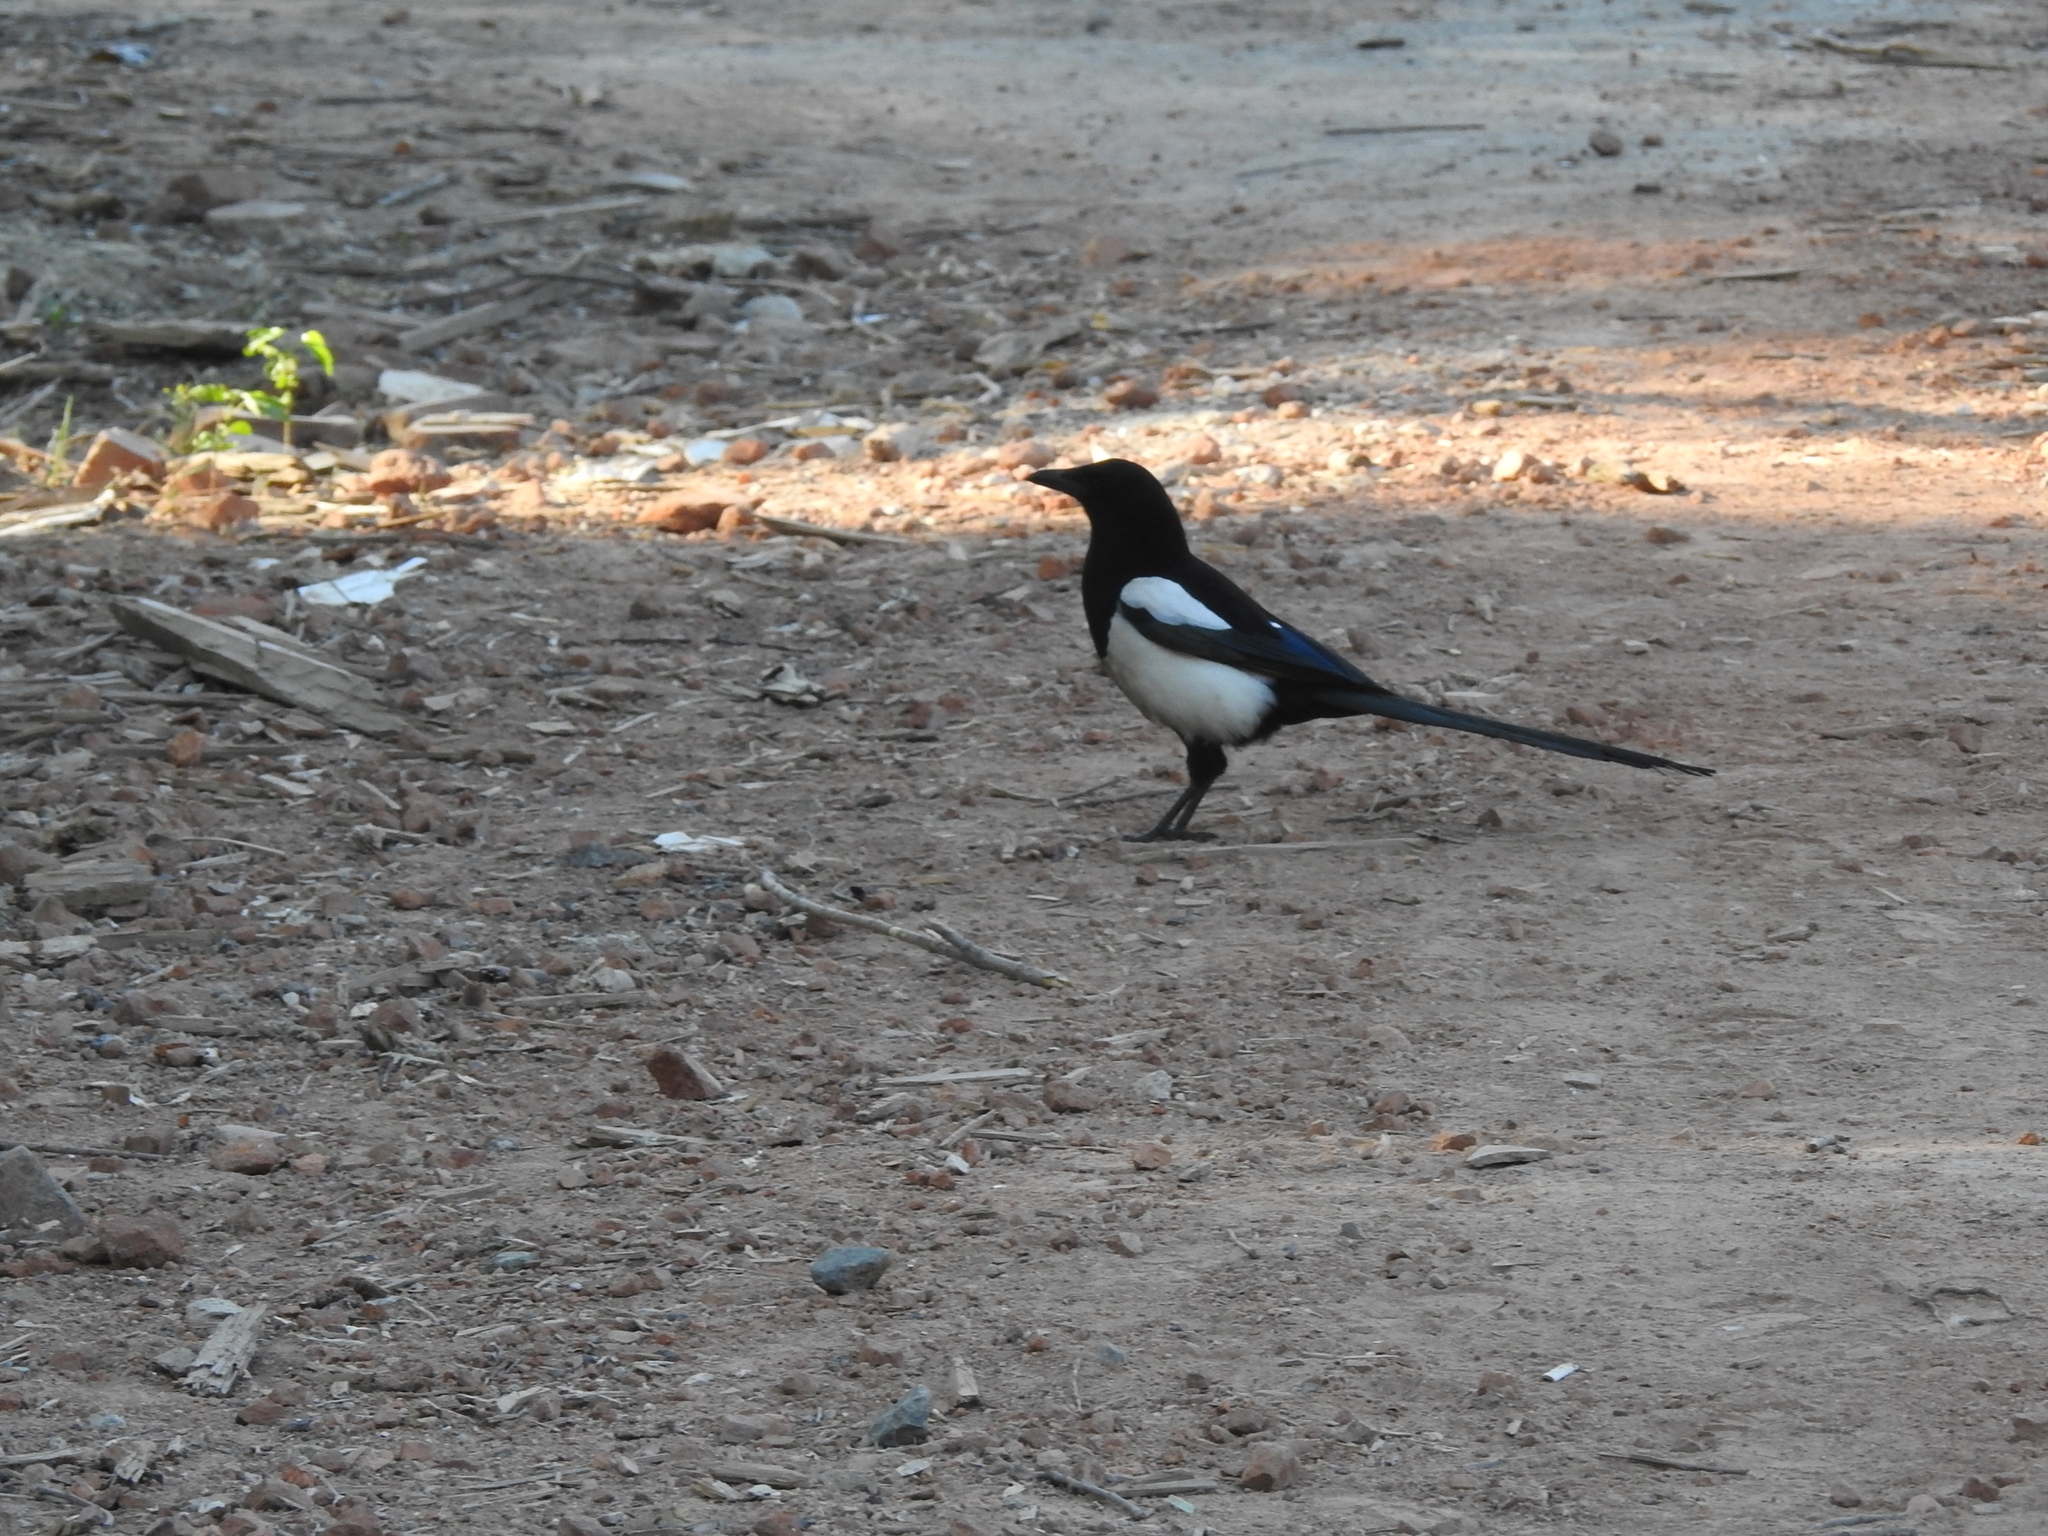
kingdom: Animalia
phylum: Chordata
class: Aves
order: Passeriformes
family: Corvidae
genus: Pica
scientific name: Pica pica
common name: Eurasian magpie
